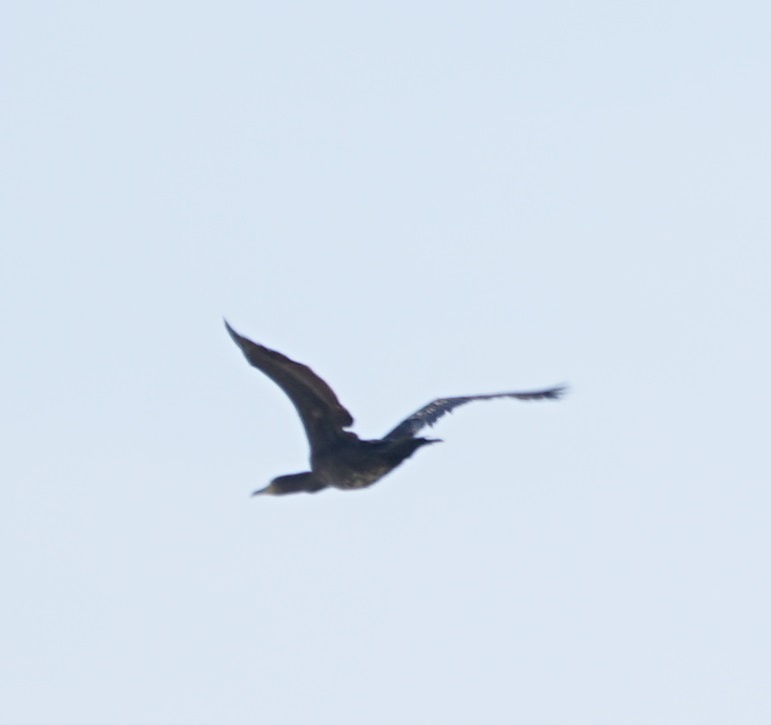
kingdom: Animalia
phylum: Chordata
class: Aves
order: Suliformes
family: Phalacrocoracidae
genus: Phalacrocorax
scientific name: Phalacrocorax carbo
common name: Great cormorant
